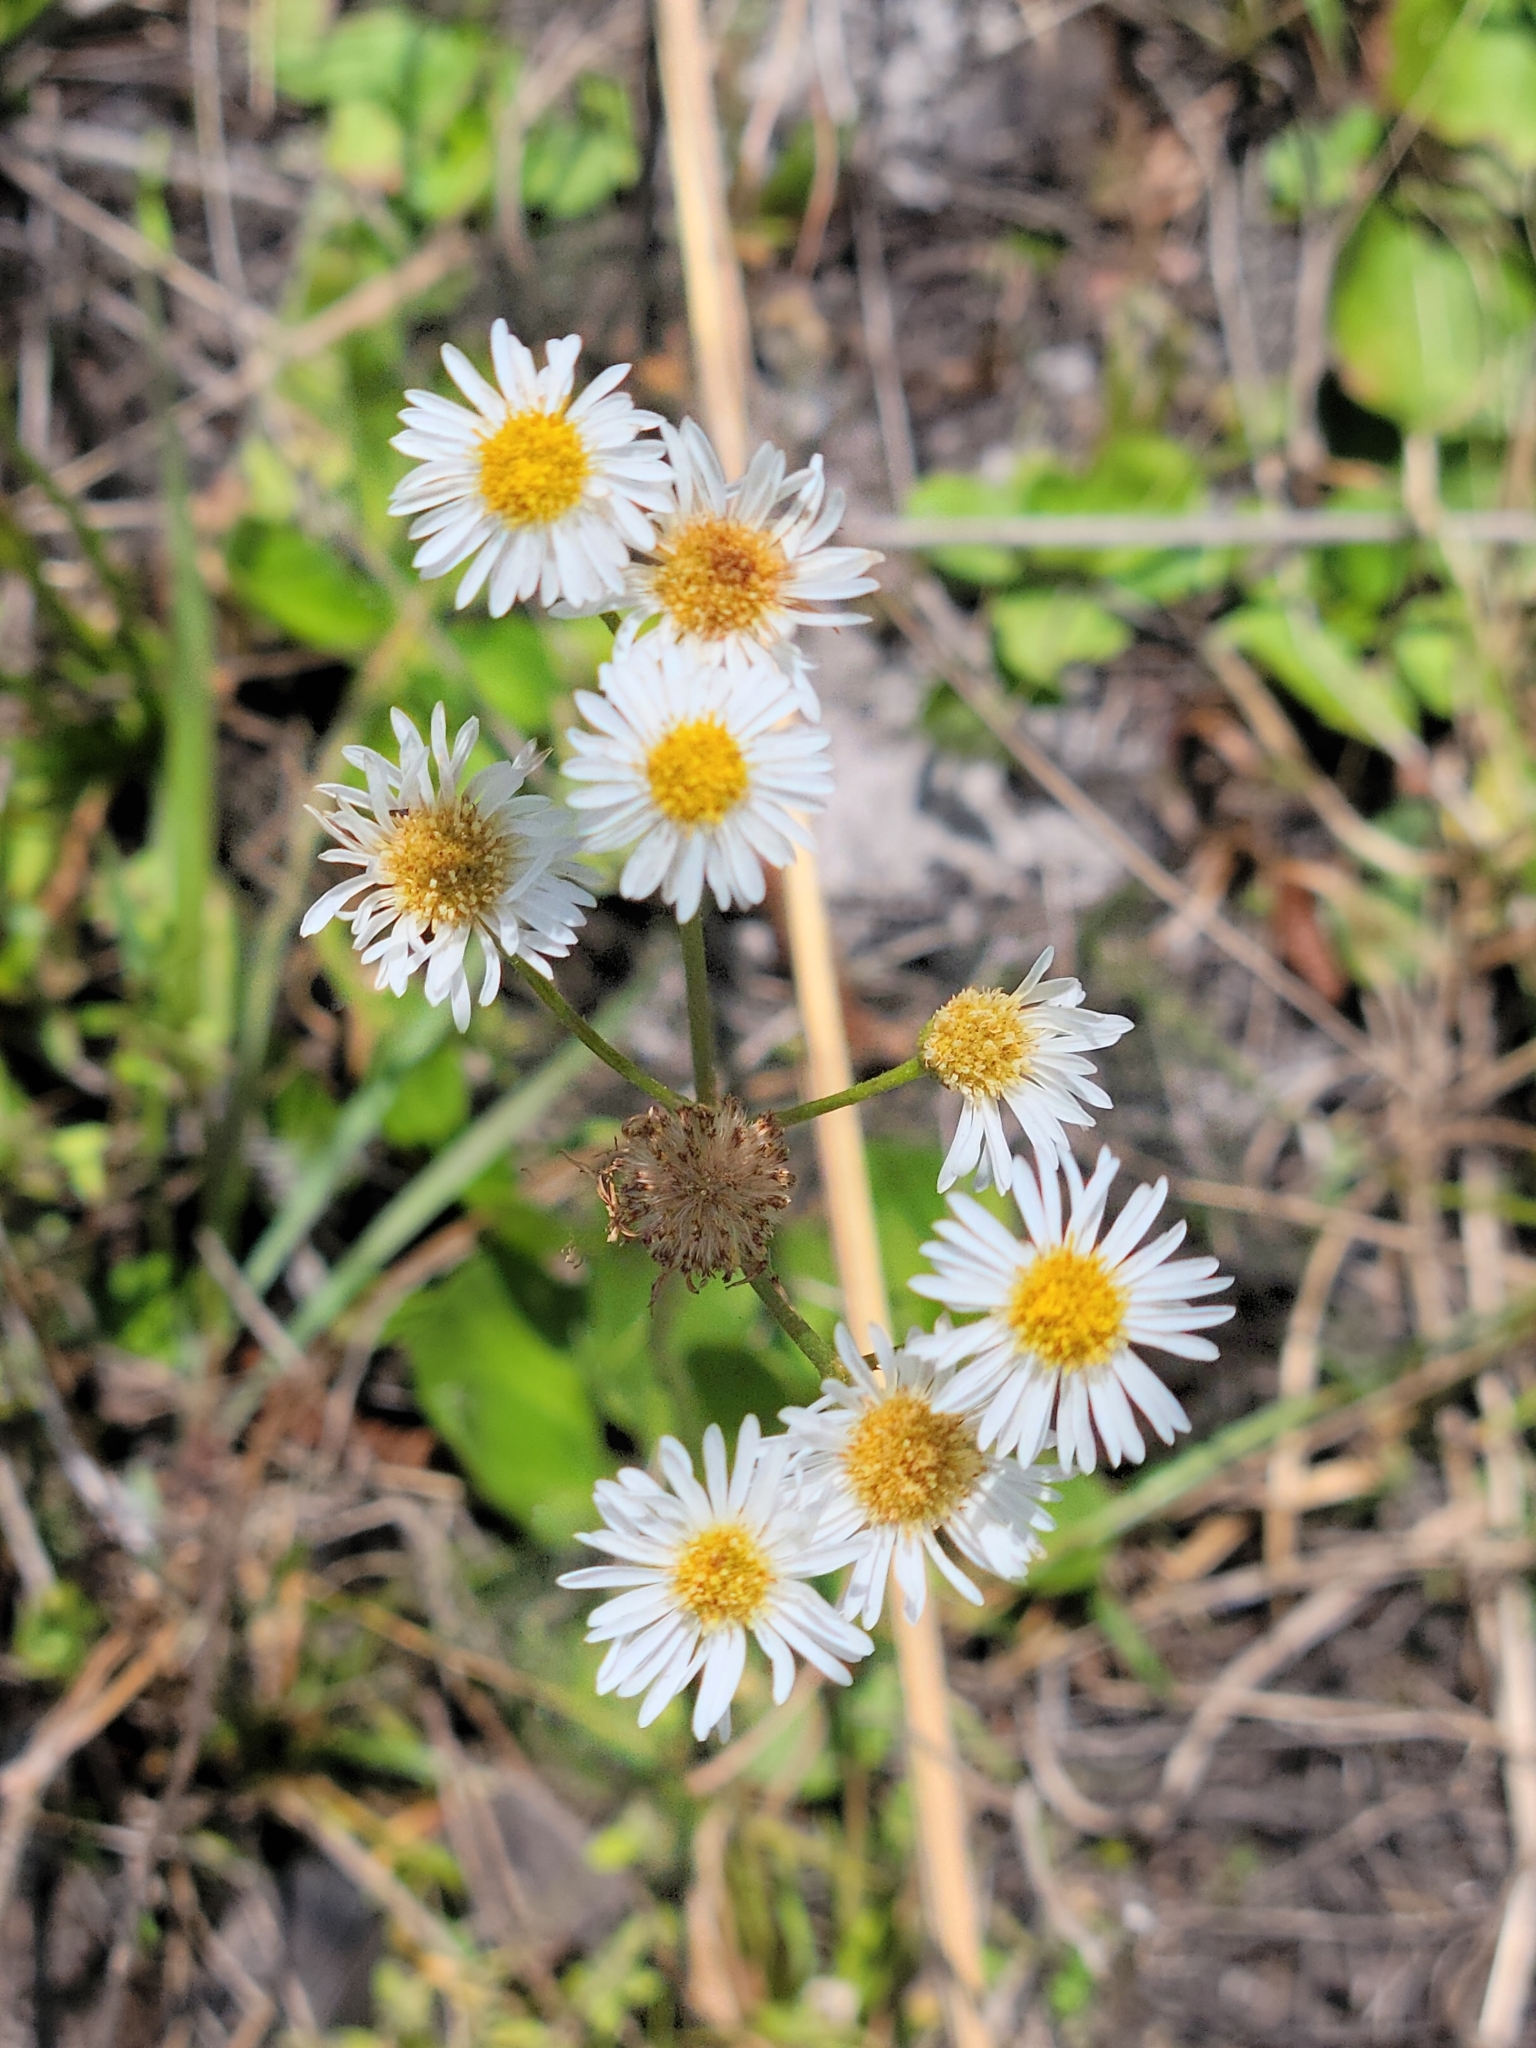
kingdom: Plantae
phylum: Tracheophyta
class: Magnoliopsida
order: Asterales
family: Asteraceae
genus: Erigeron
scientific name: Erigeron vernus
